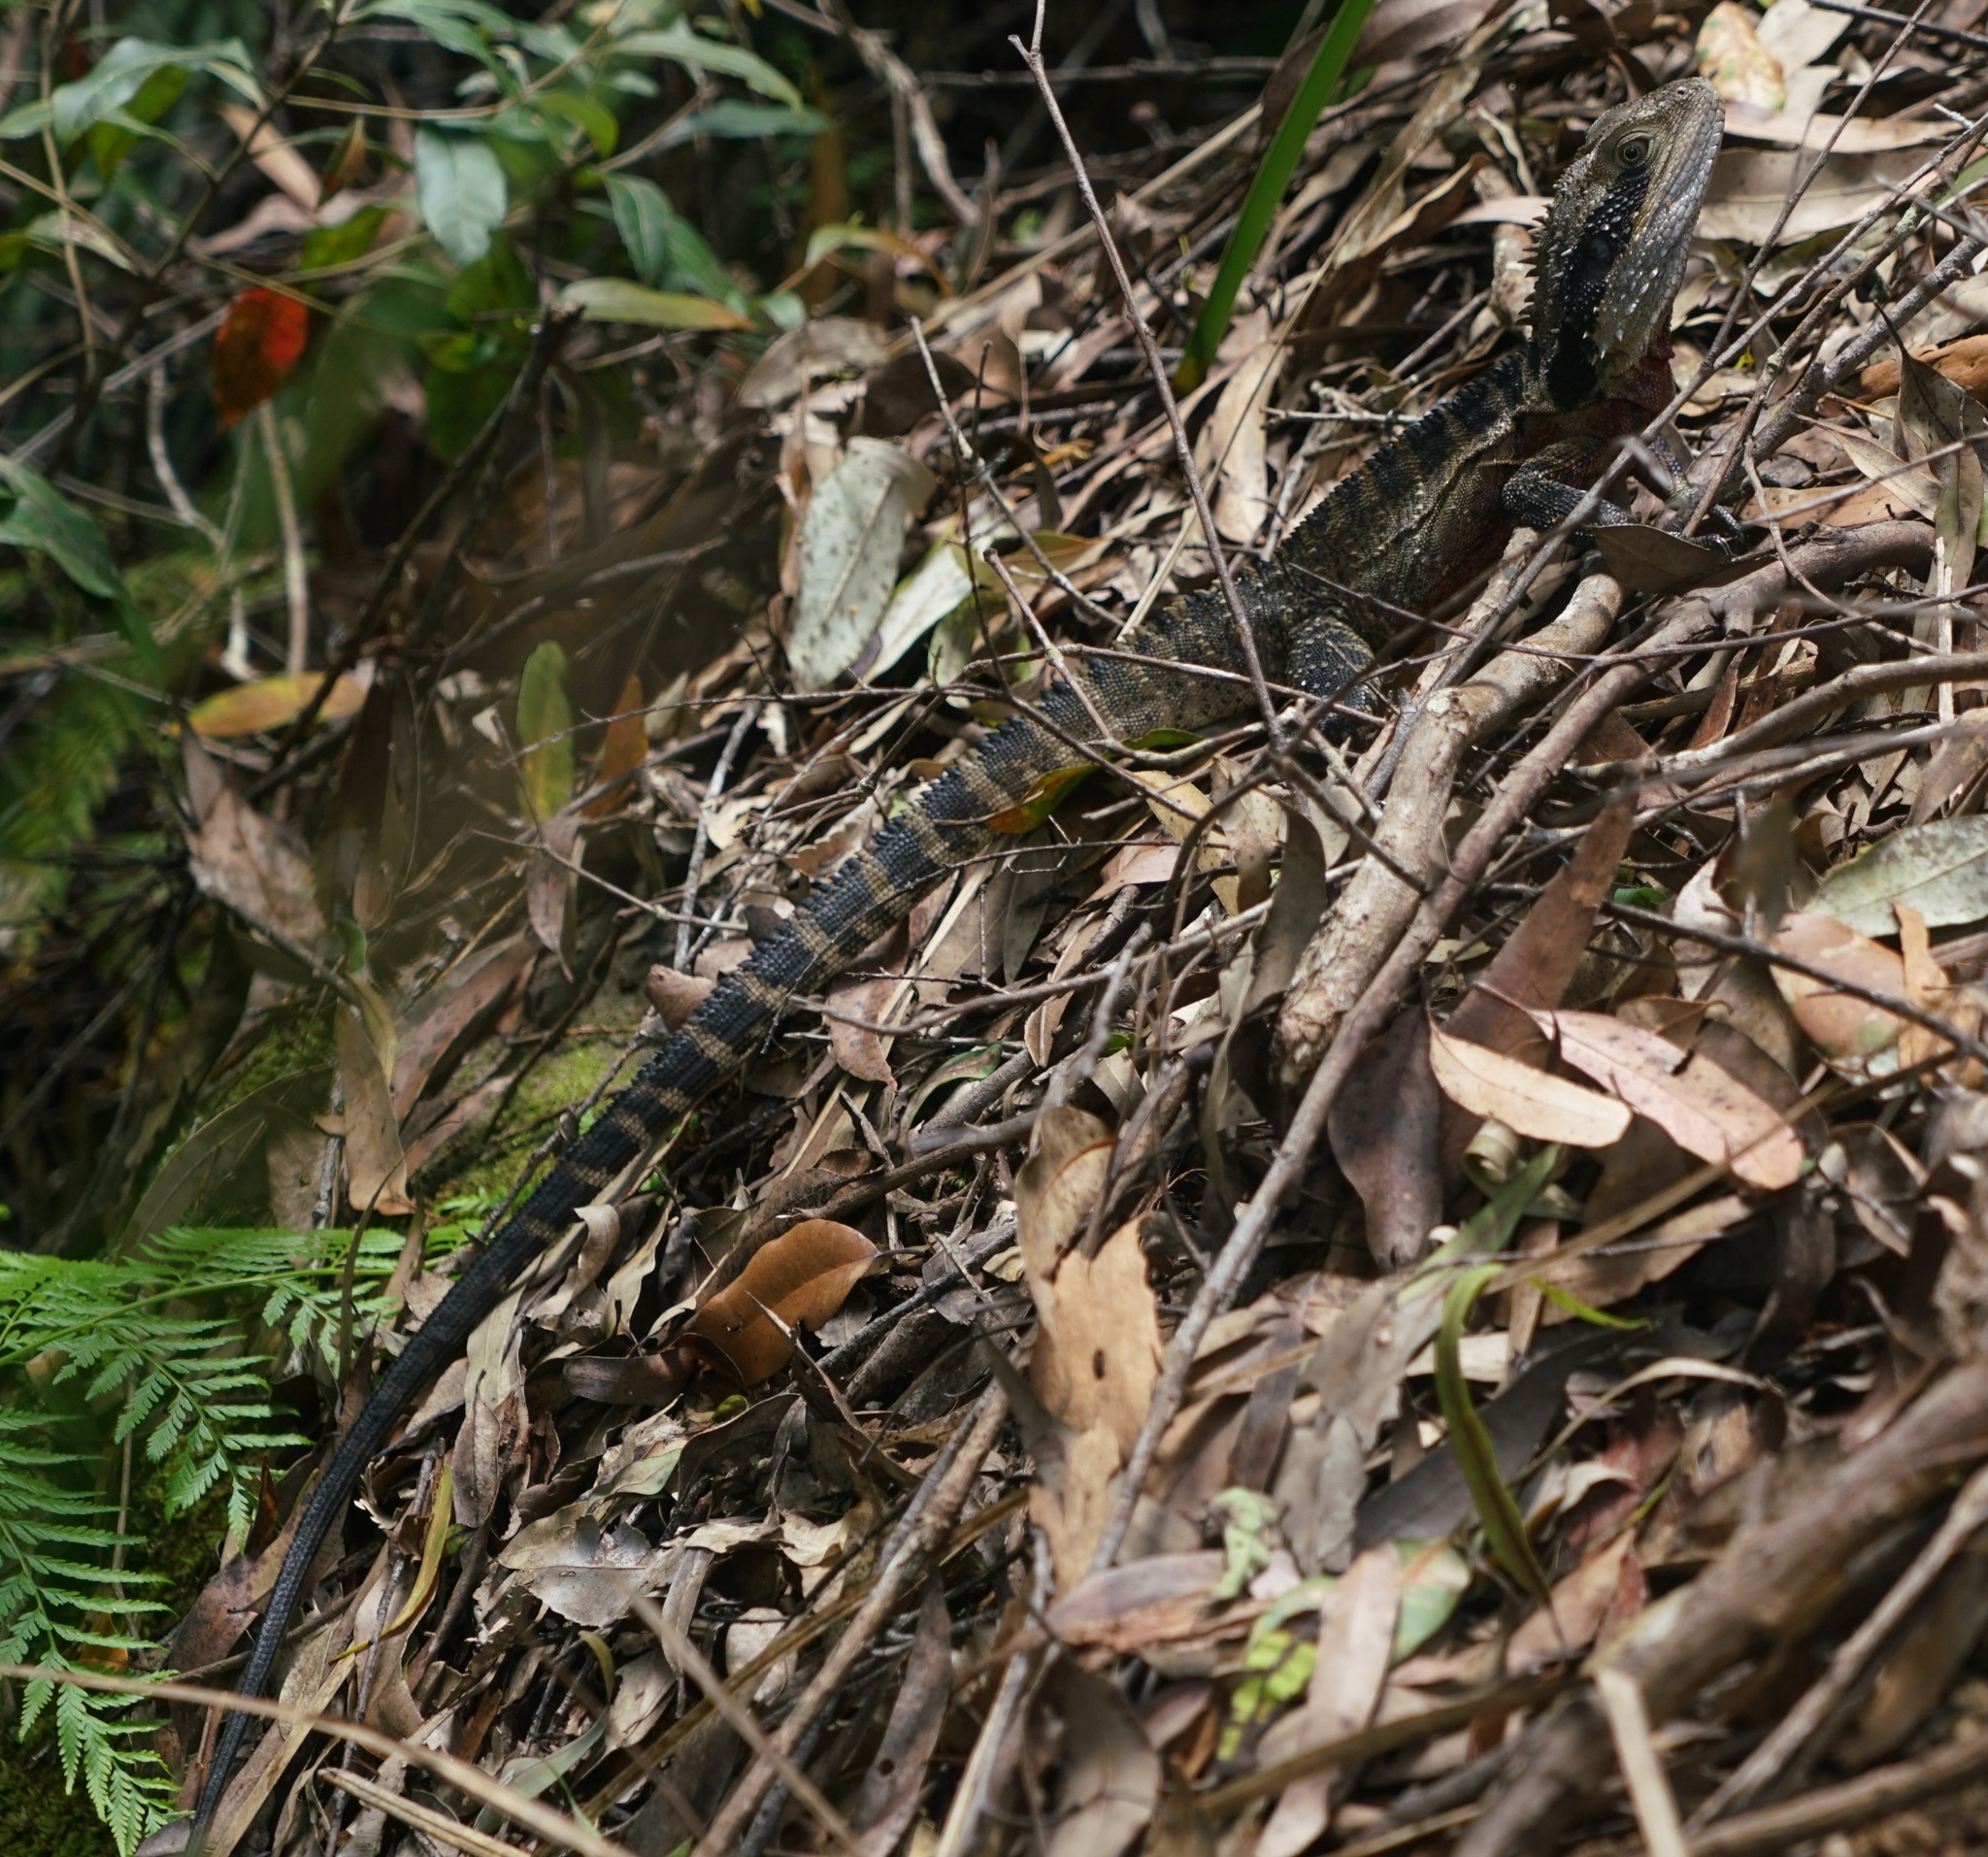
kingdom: Animalia
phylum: Chordata
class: Squamata
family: Agamidae
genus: Intellagama
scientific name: Intellagama lesueurii
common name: Eastern water dragon
